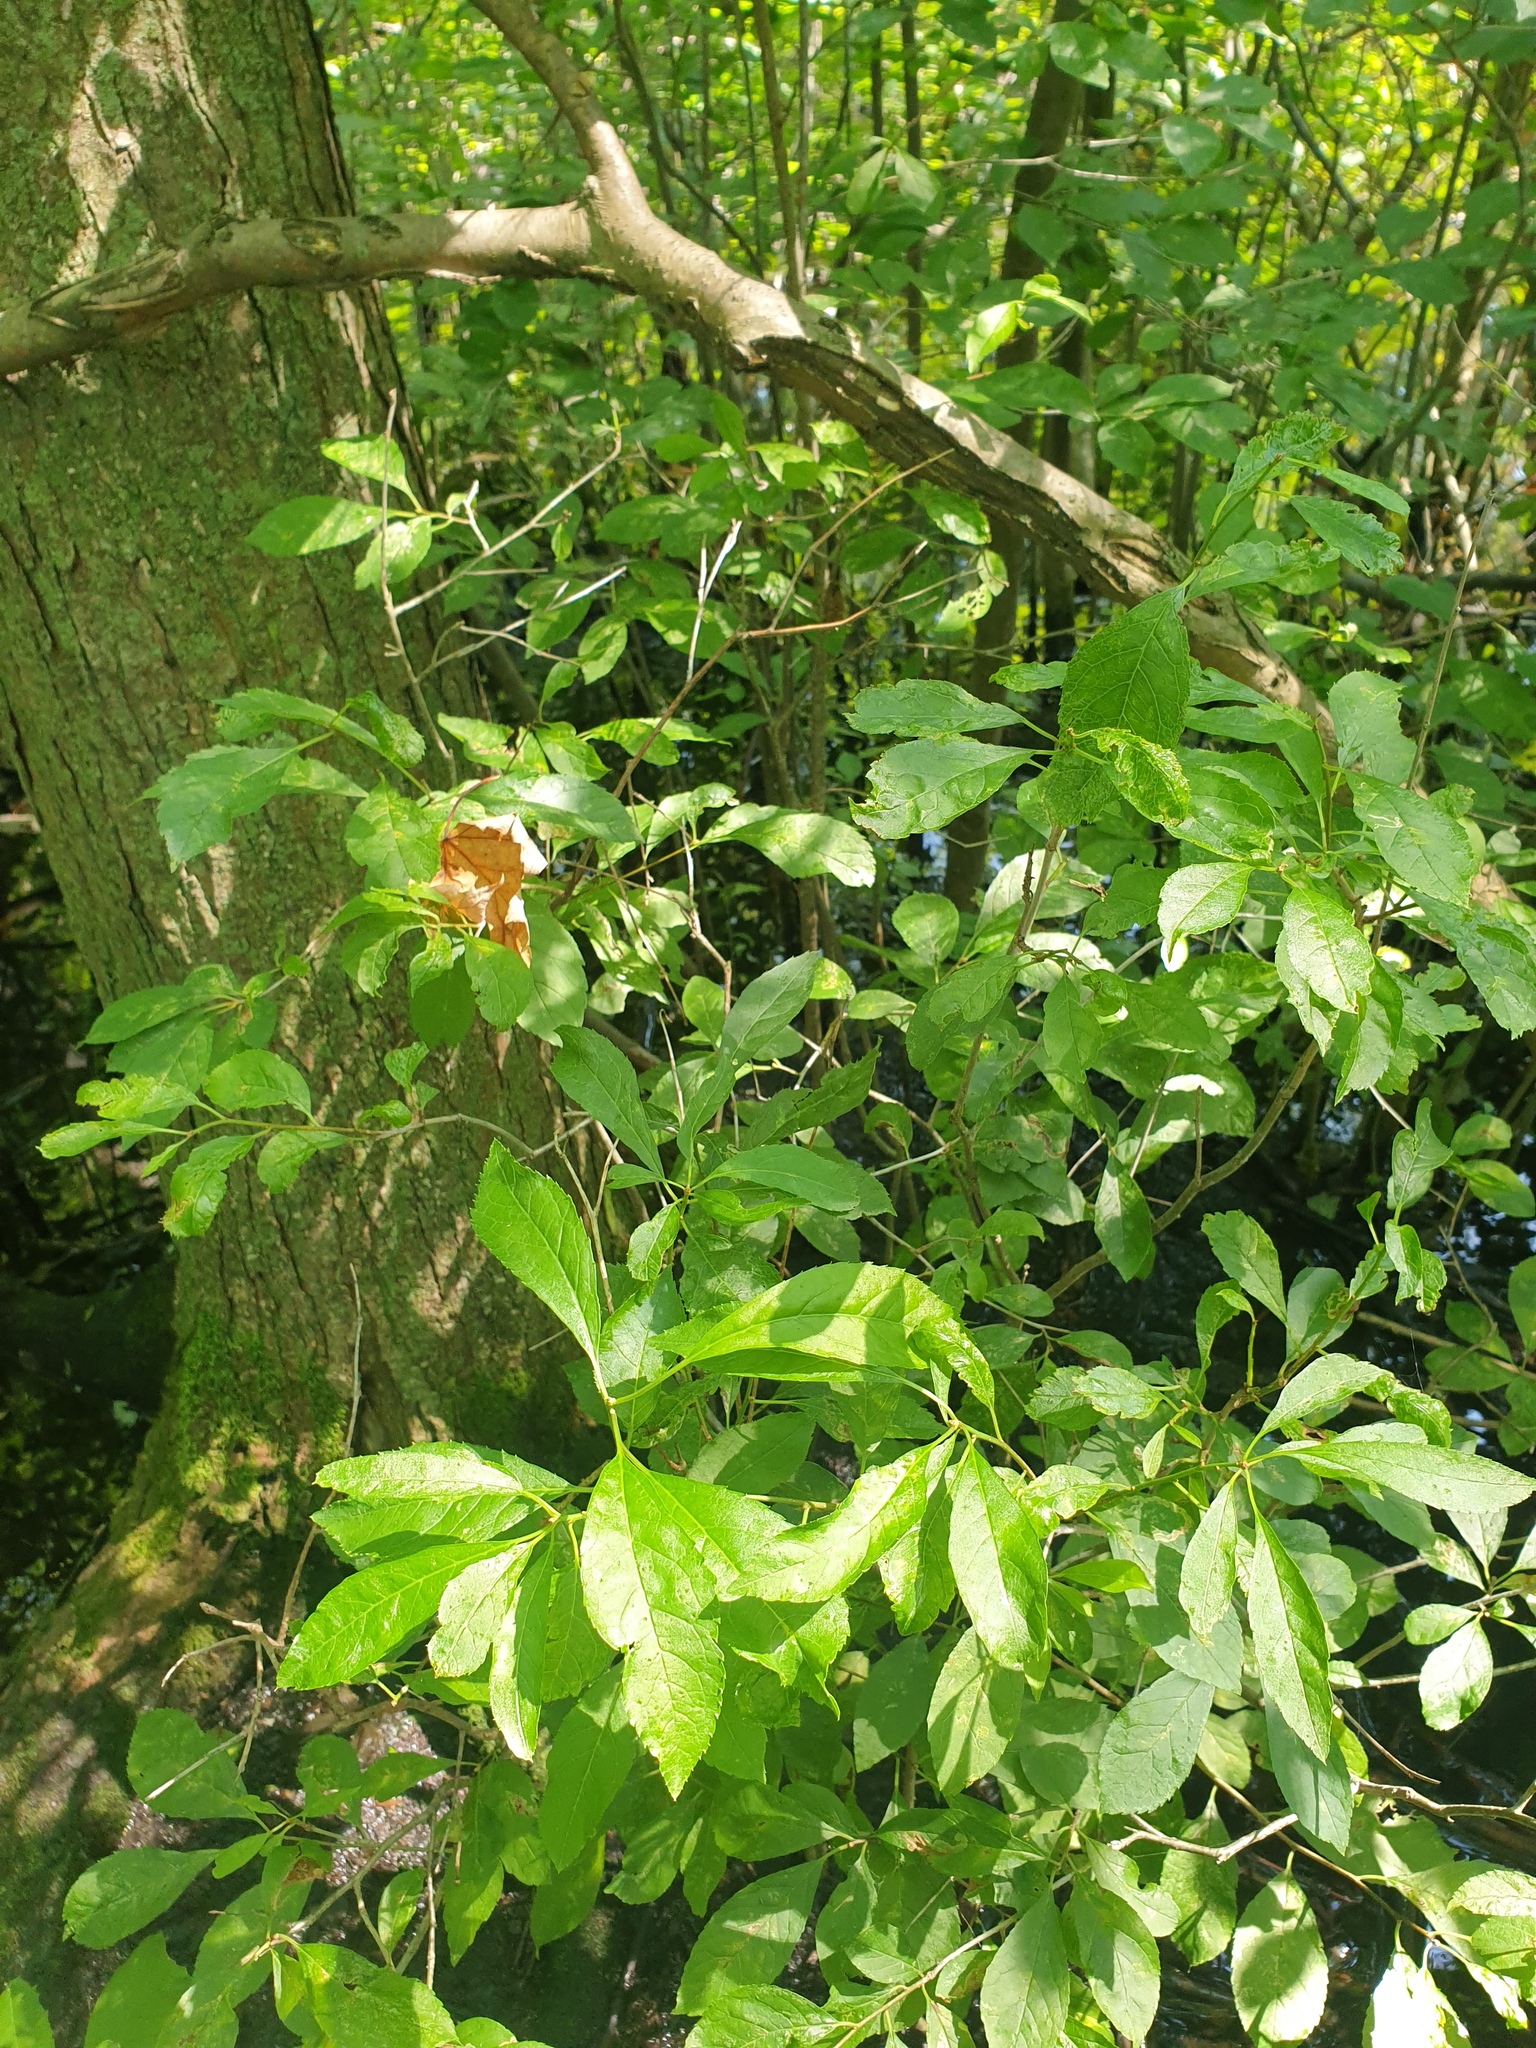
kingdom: Plantae
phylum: Tracheophyta
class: Magnoliopsida
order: Aquifoliales
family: Aquifoliaceae
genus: Ilex
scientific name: Ilex verticillata
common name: Virginia winterberry
